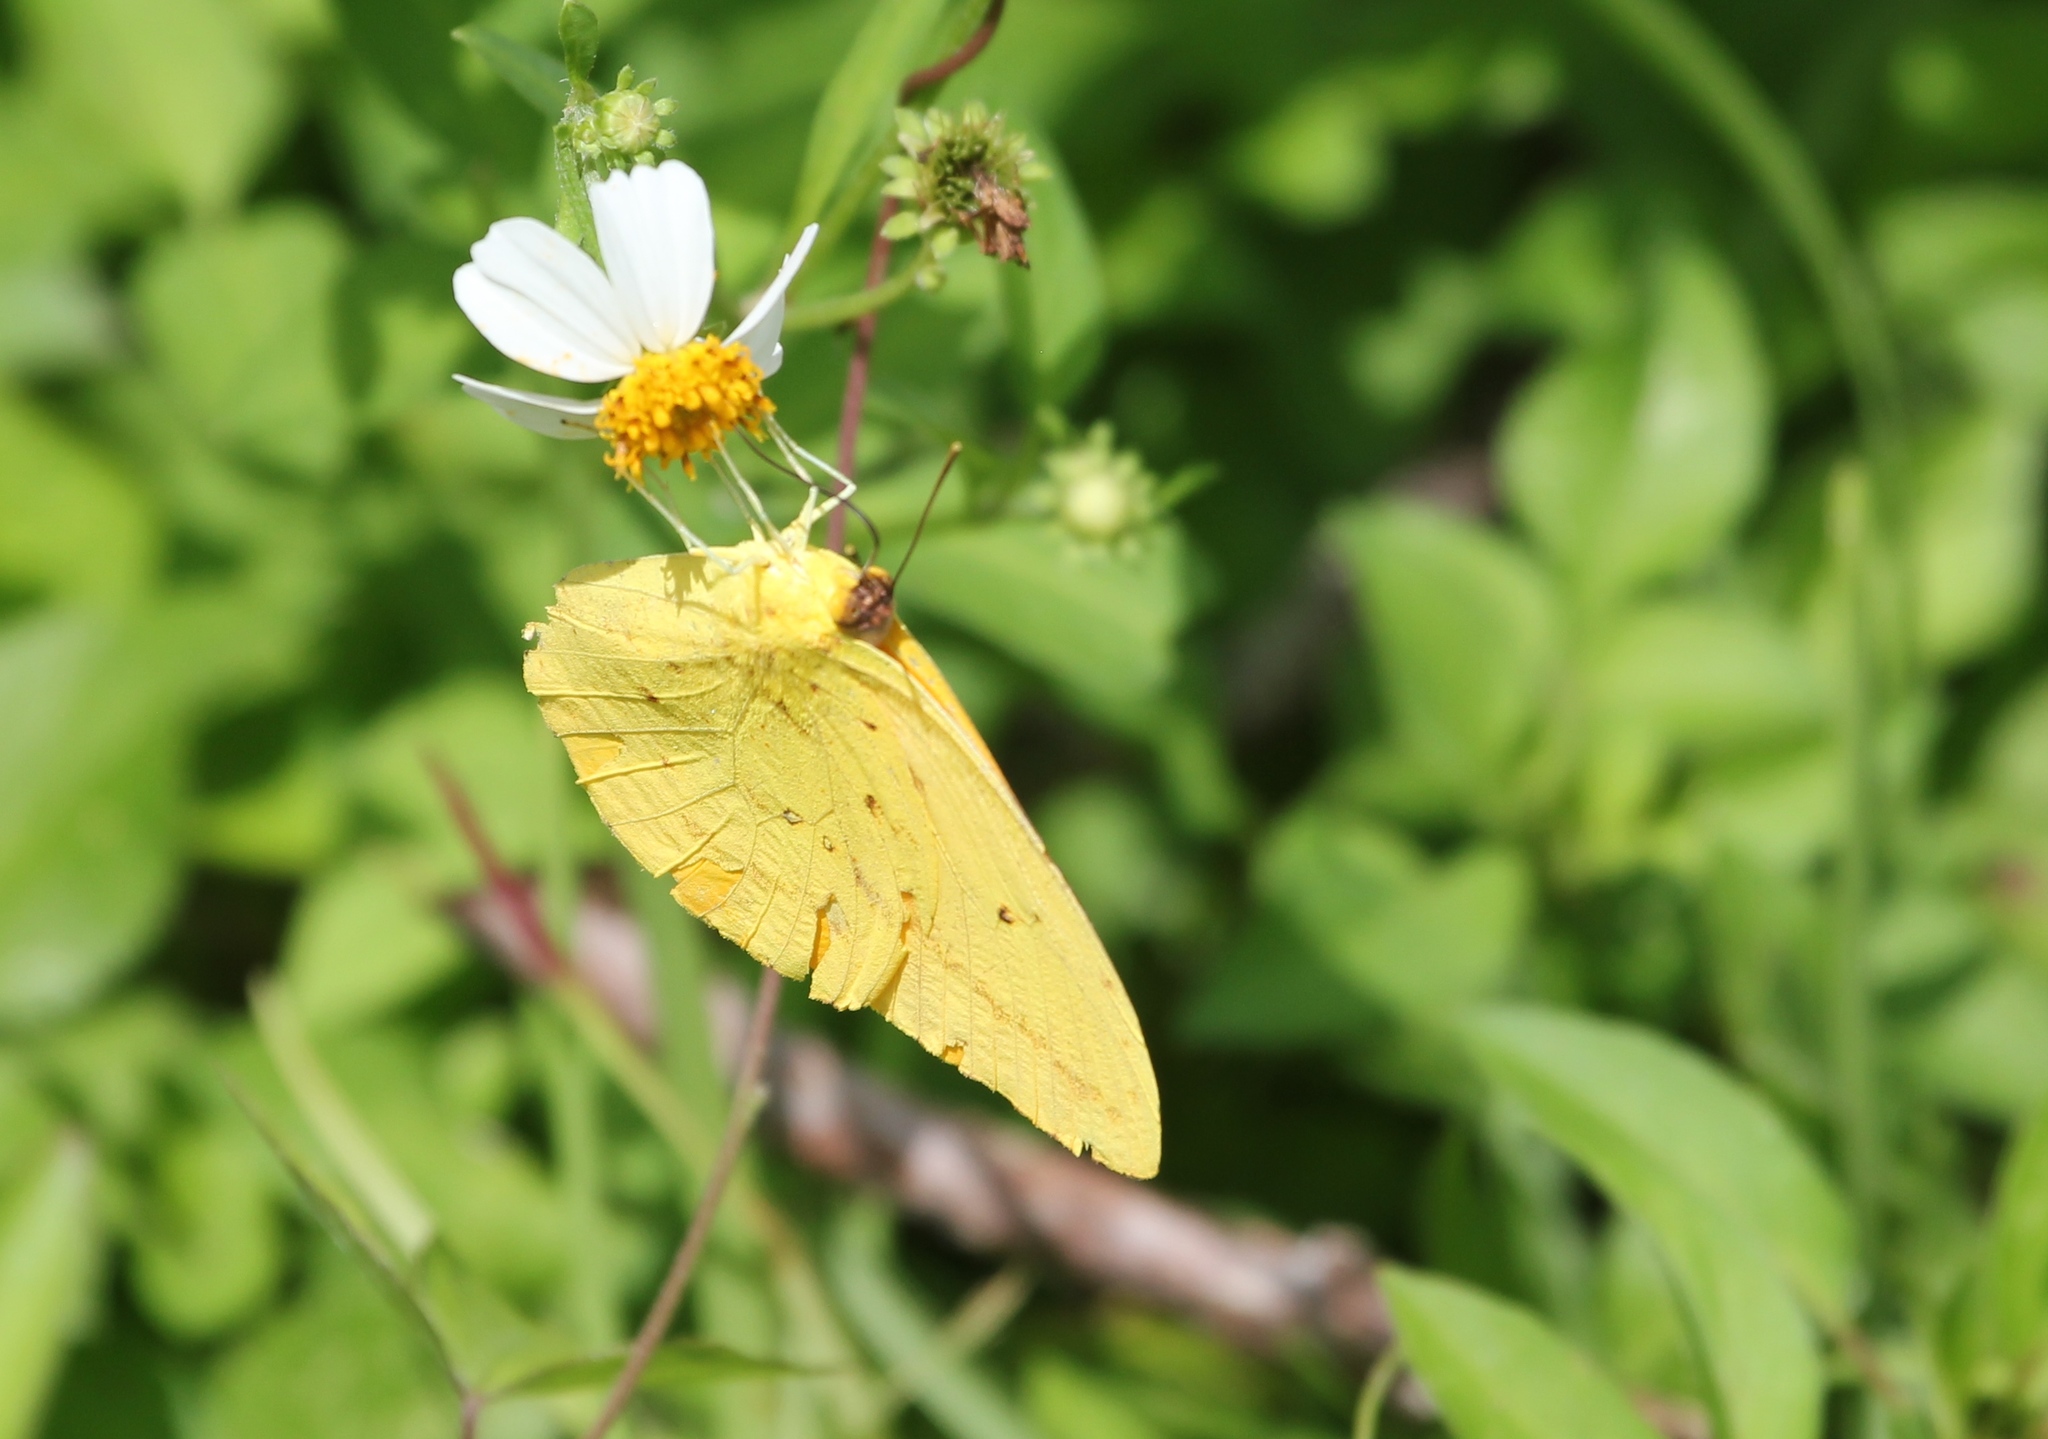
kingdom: Animalia
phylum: Arthropoda
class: Insecta
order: Lepidoptera
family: Pieridae
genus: Phoebis
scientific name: Phoebis agarithe
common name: Large orange sulphur
